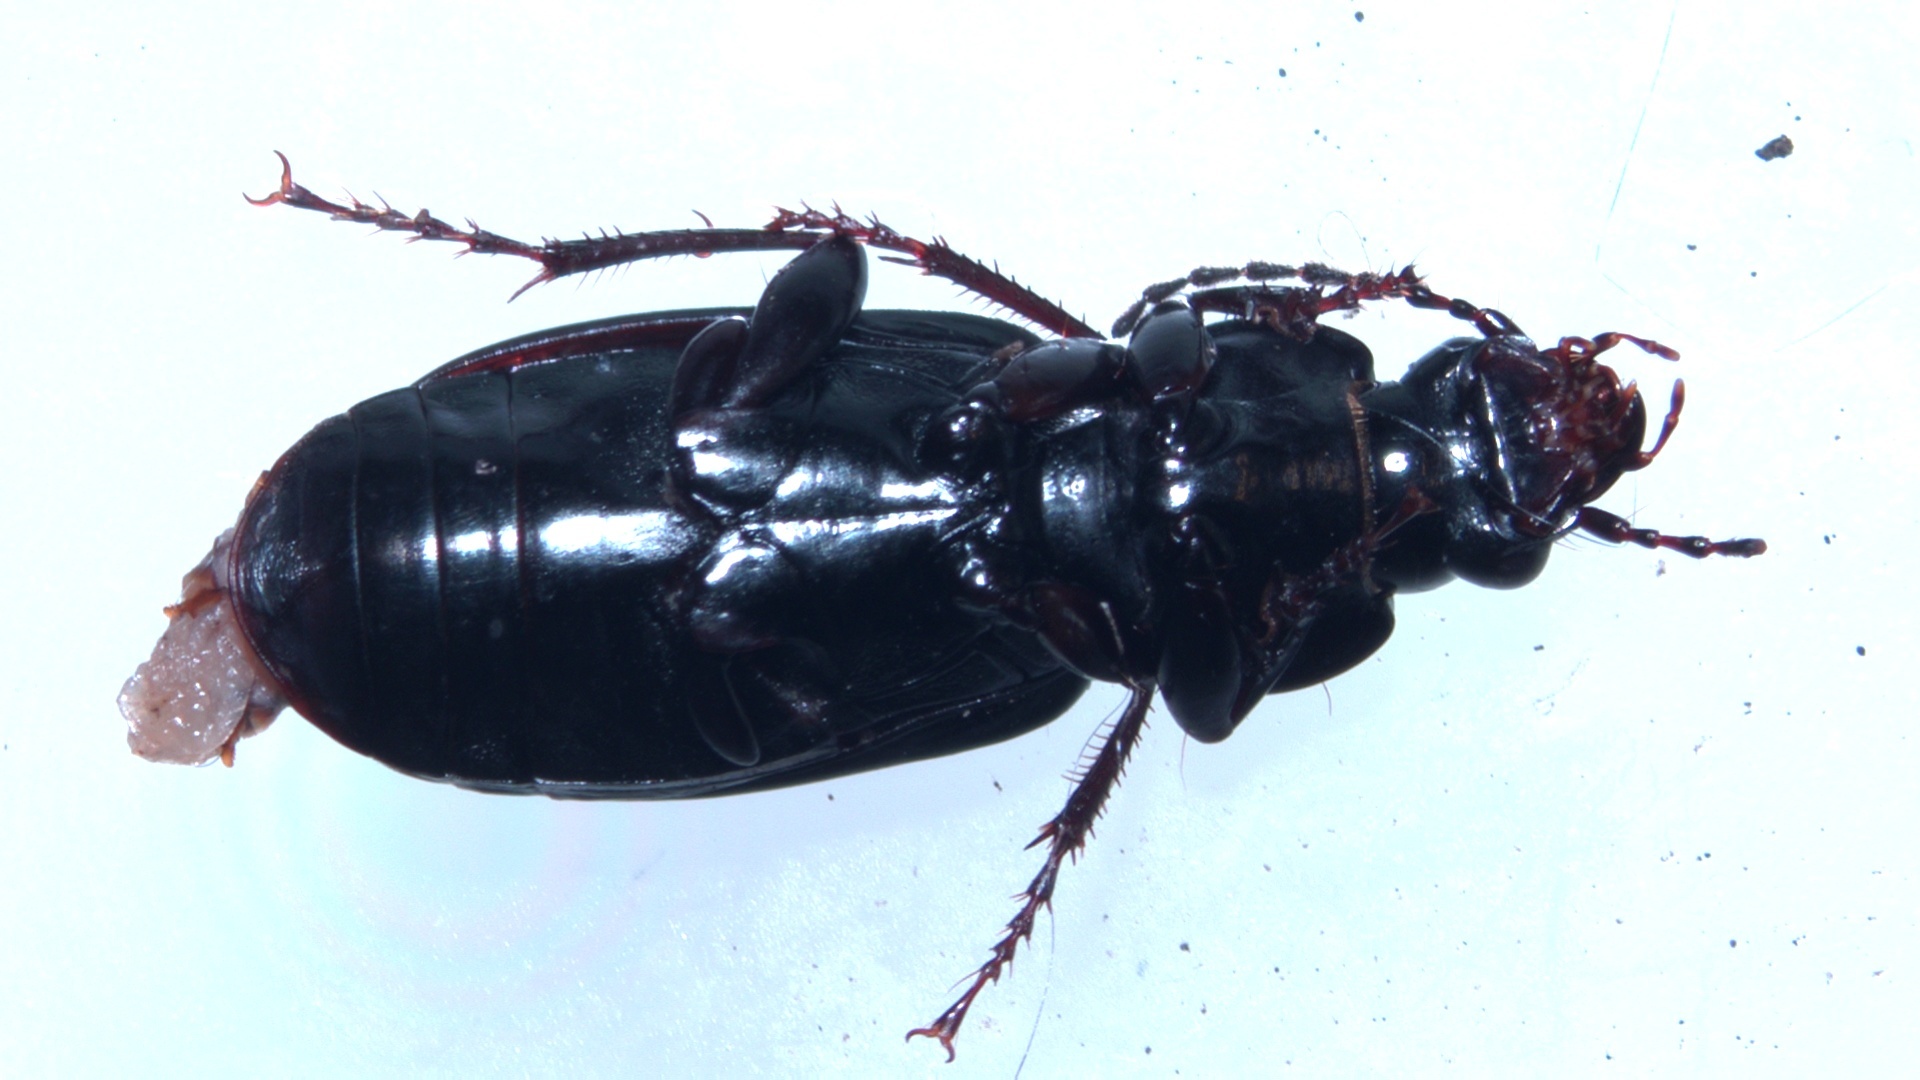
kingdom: Animalia
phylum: Arthropoda
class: Insecta
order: Coleoptera
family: Carabidae
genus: Pterostichus
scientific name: Pterostichus niger
